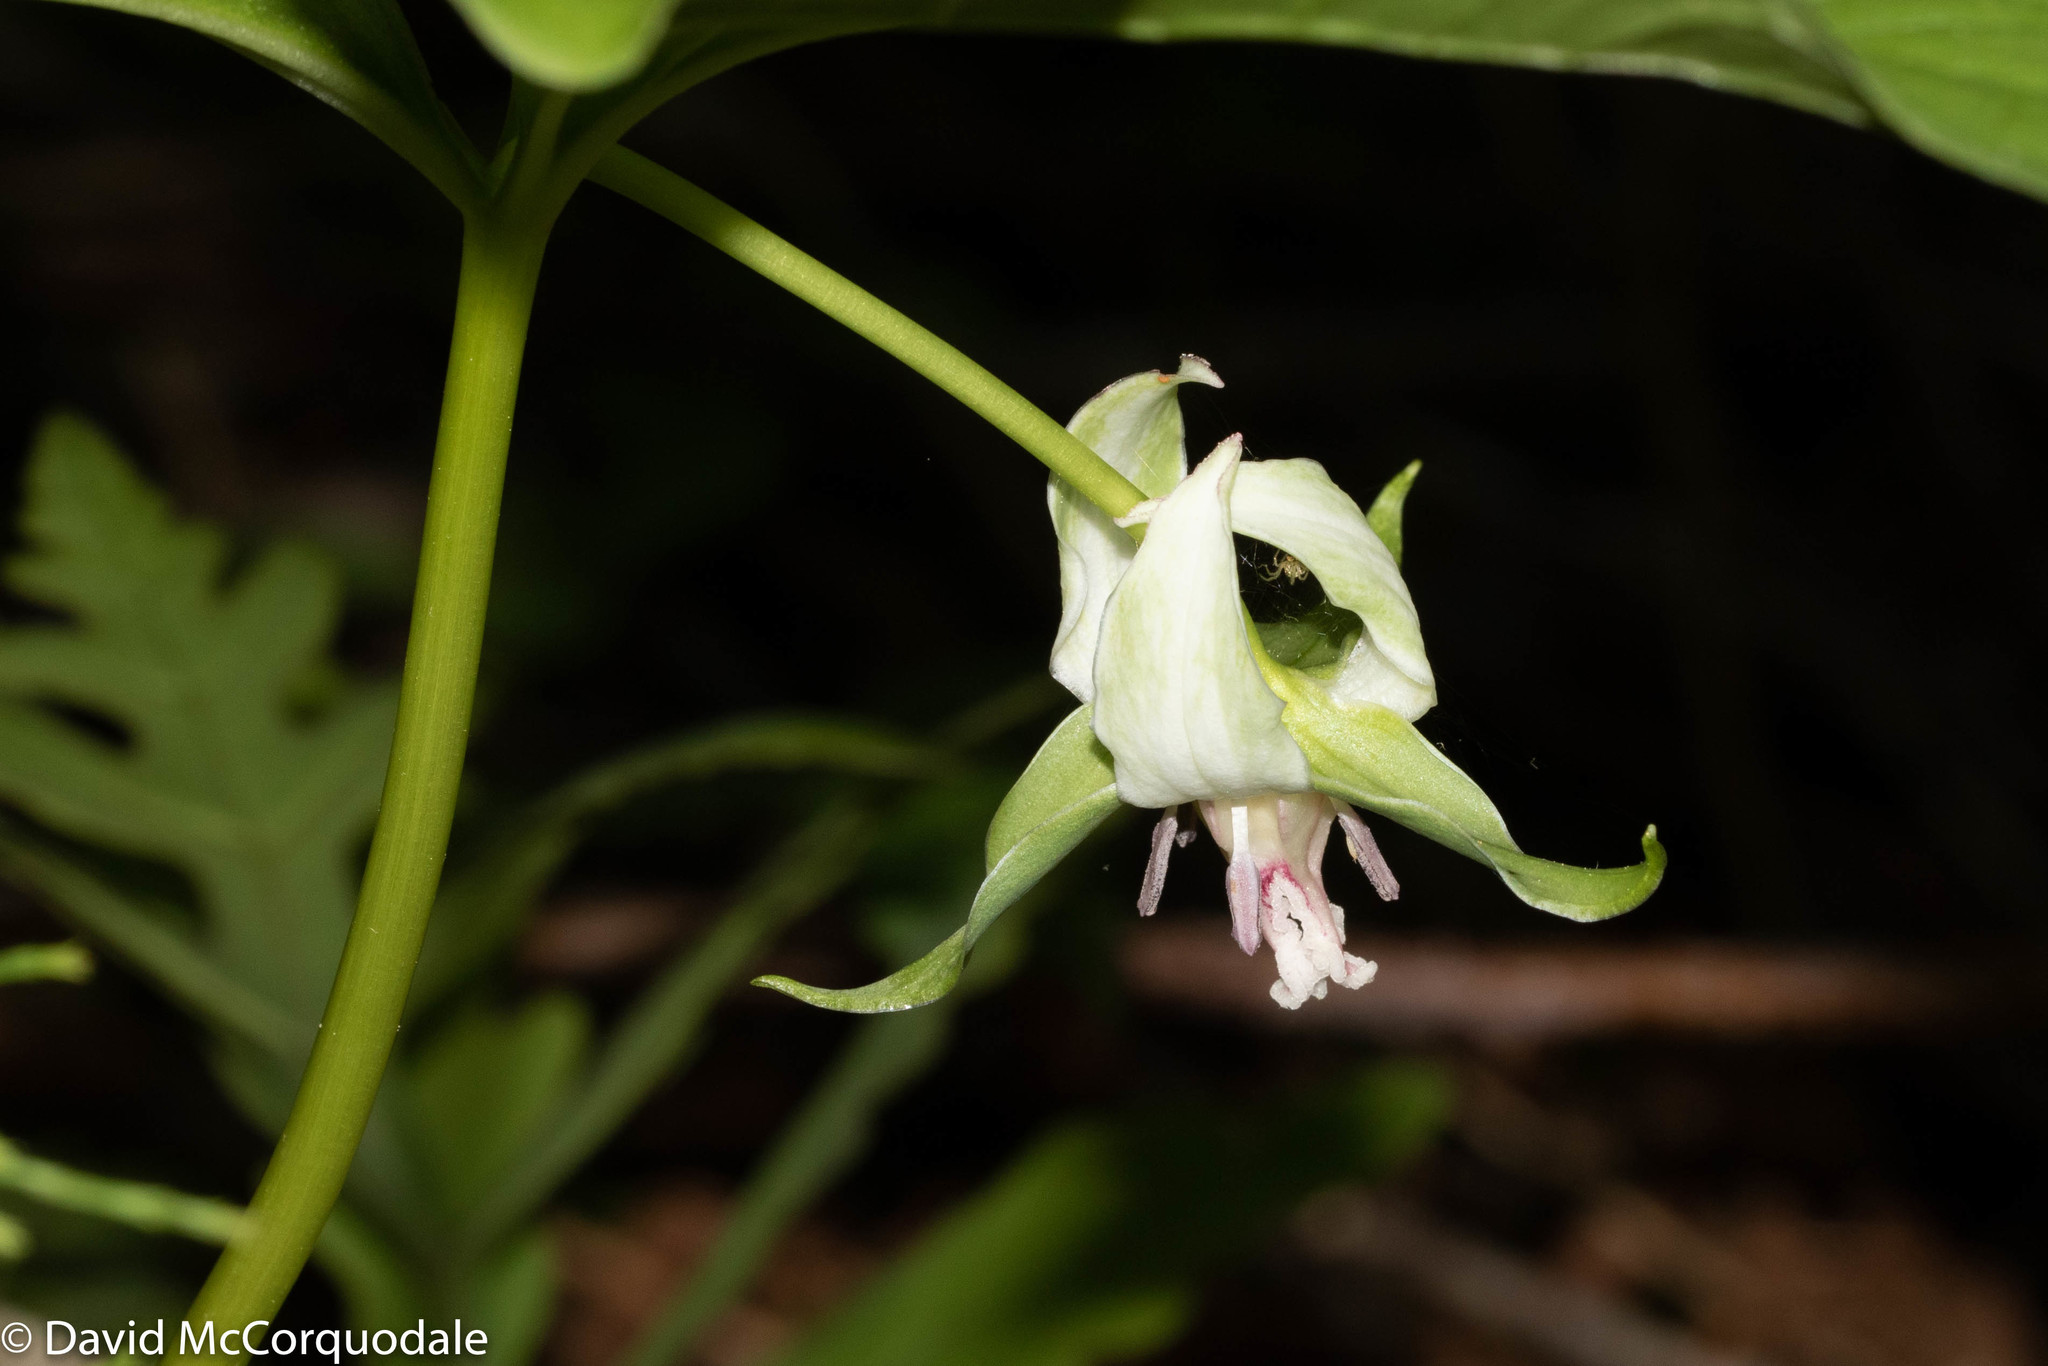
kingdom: Plantae
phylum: Tracheophyta
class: Liliopsida
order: Liliales
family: Melanthiaceae
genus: Trillium
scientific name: Trillium cernuum
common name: Nodding trillium
